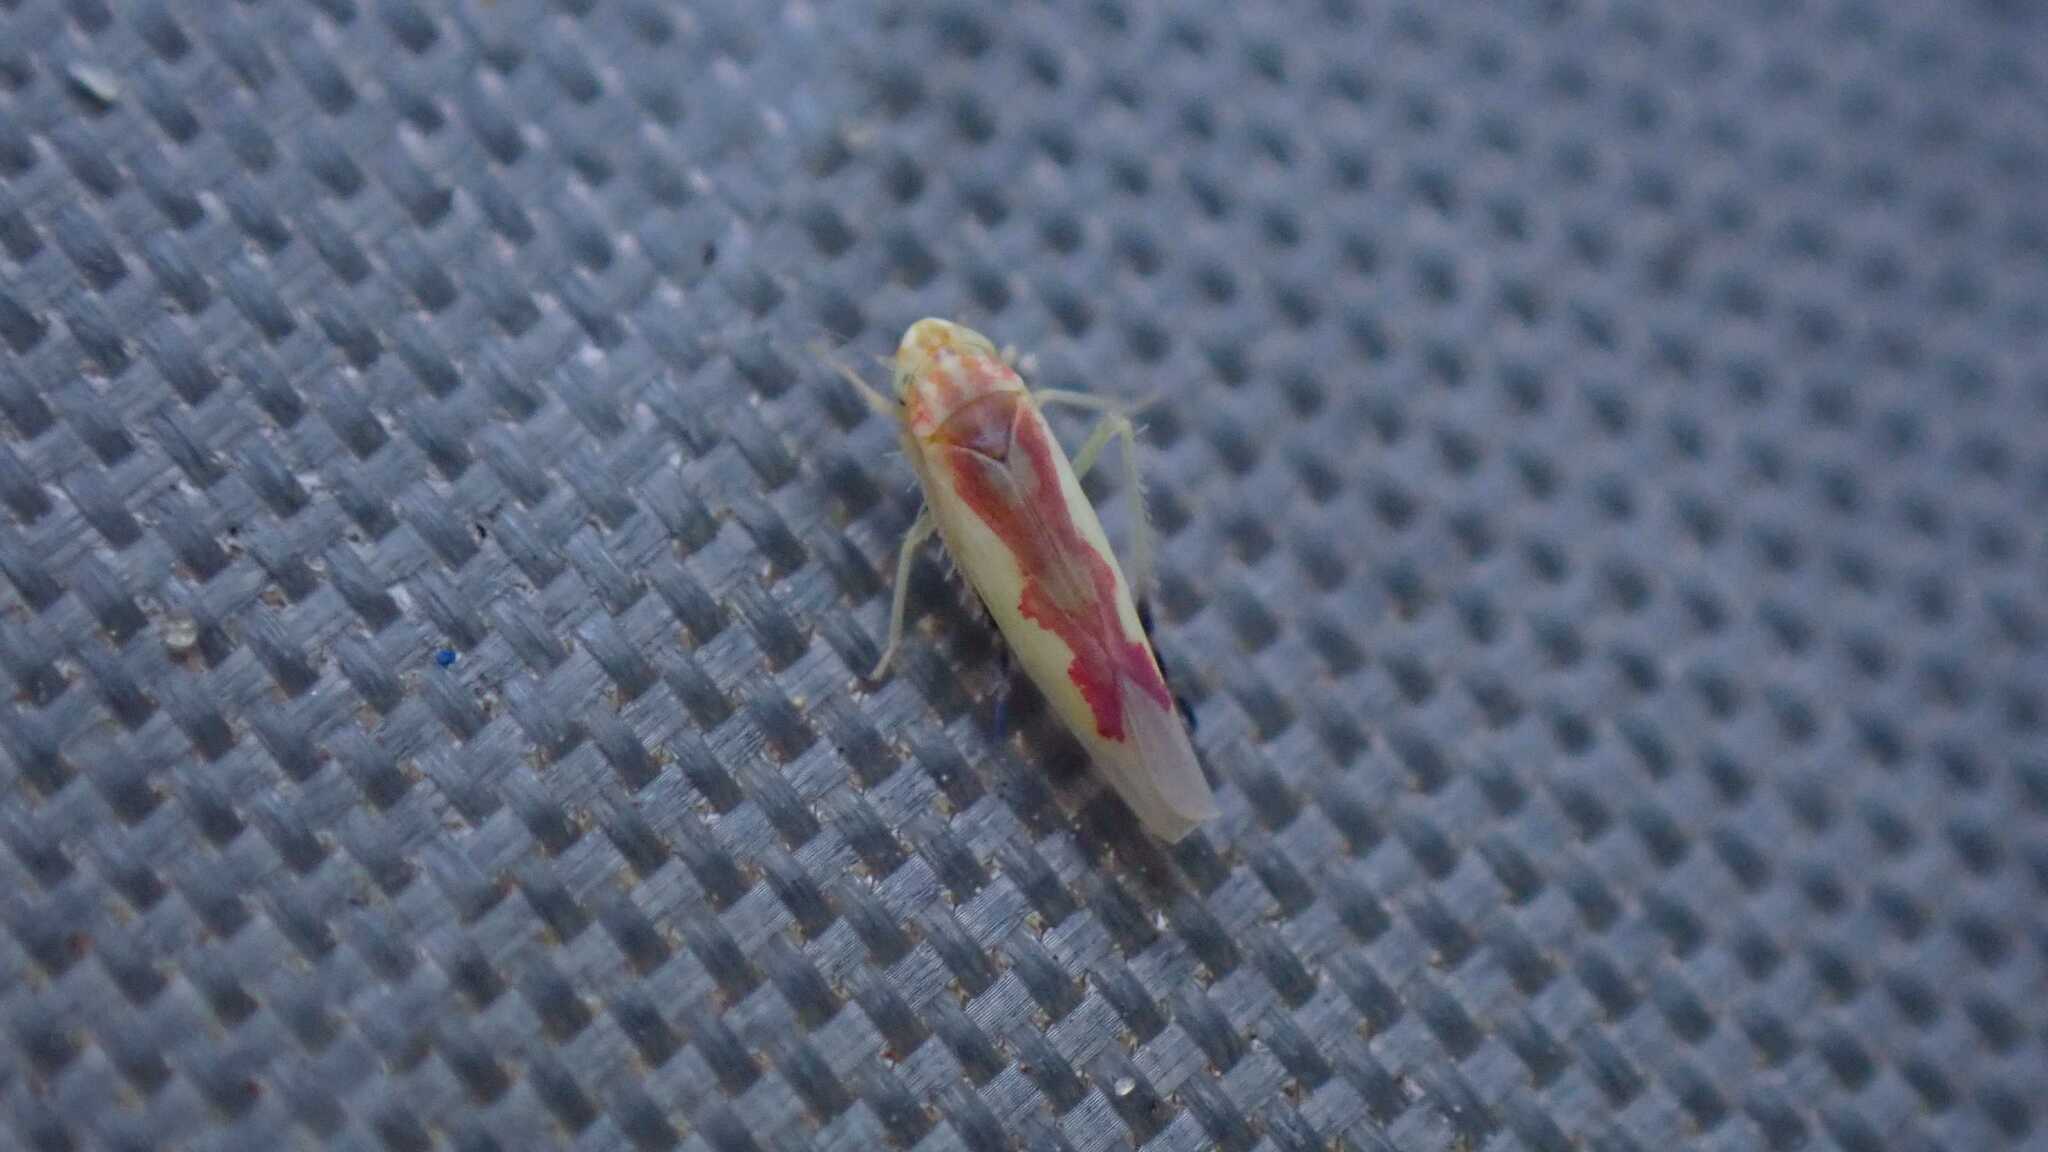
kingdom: Animalia
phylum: Arthropoda
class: Insecta
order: Hemiptera
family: Cicadellidae
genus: Zygina
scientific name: Zygina nigritarsis
